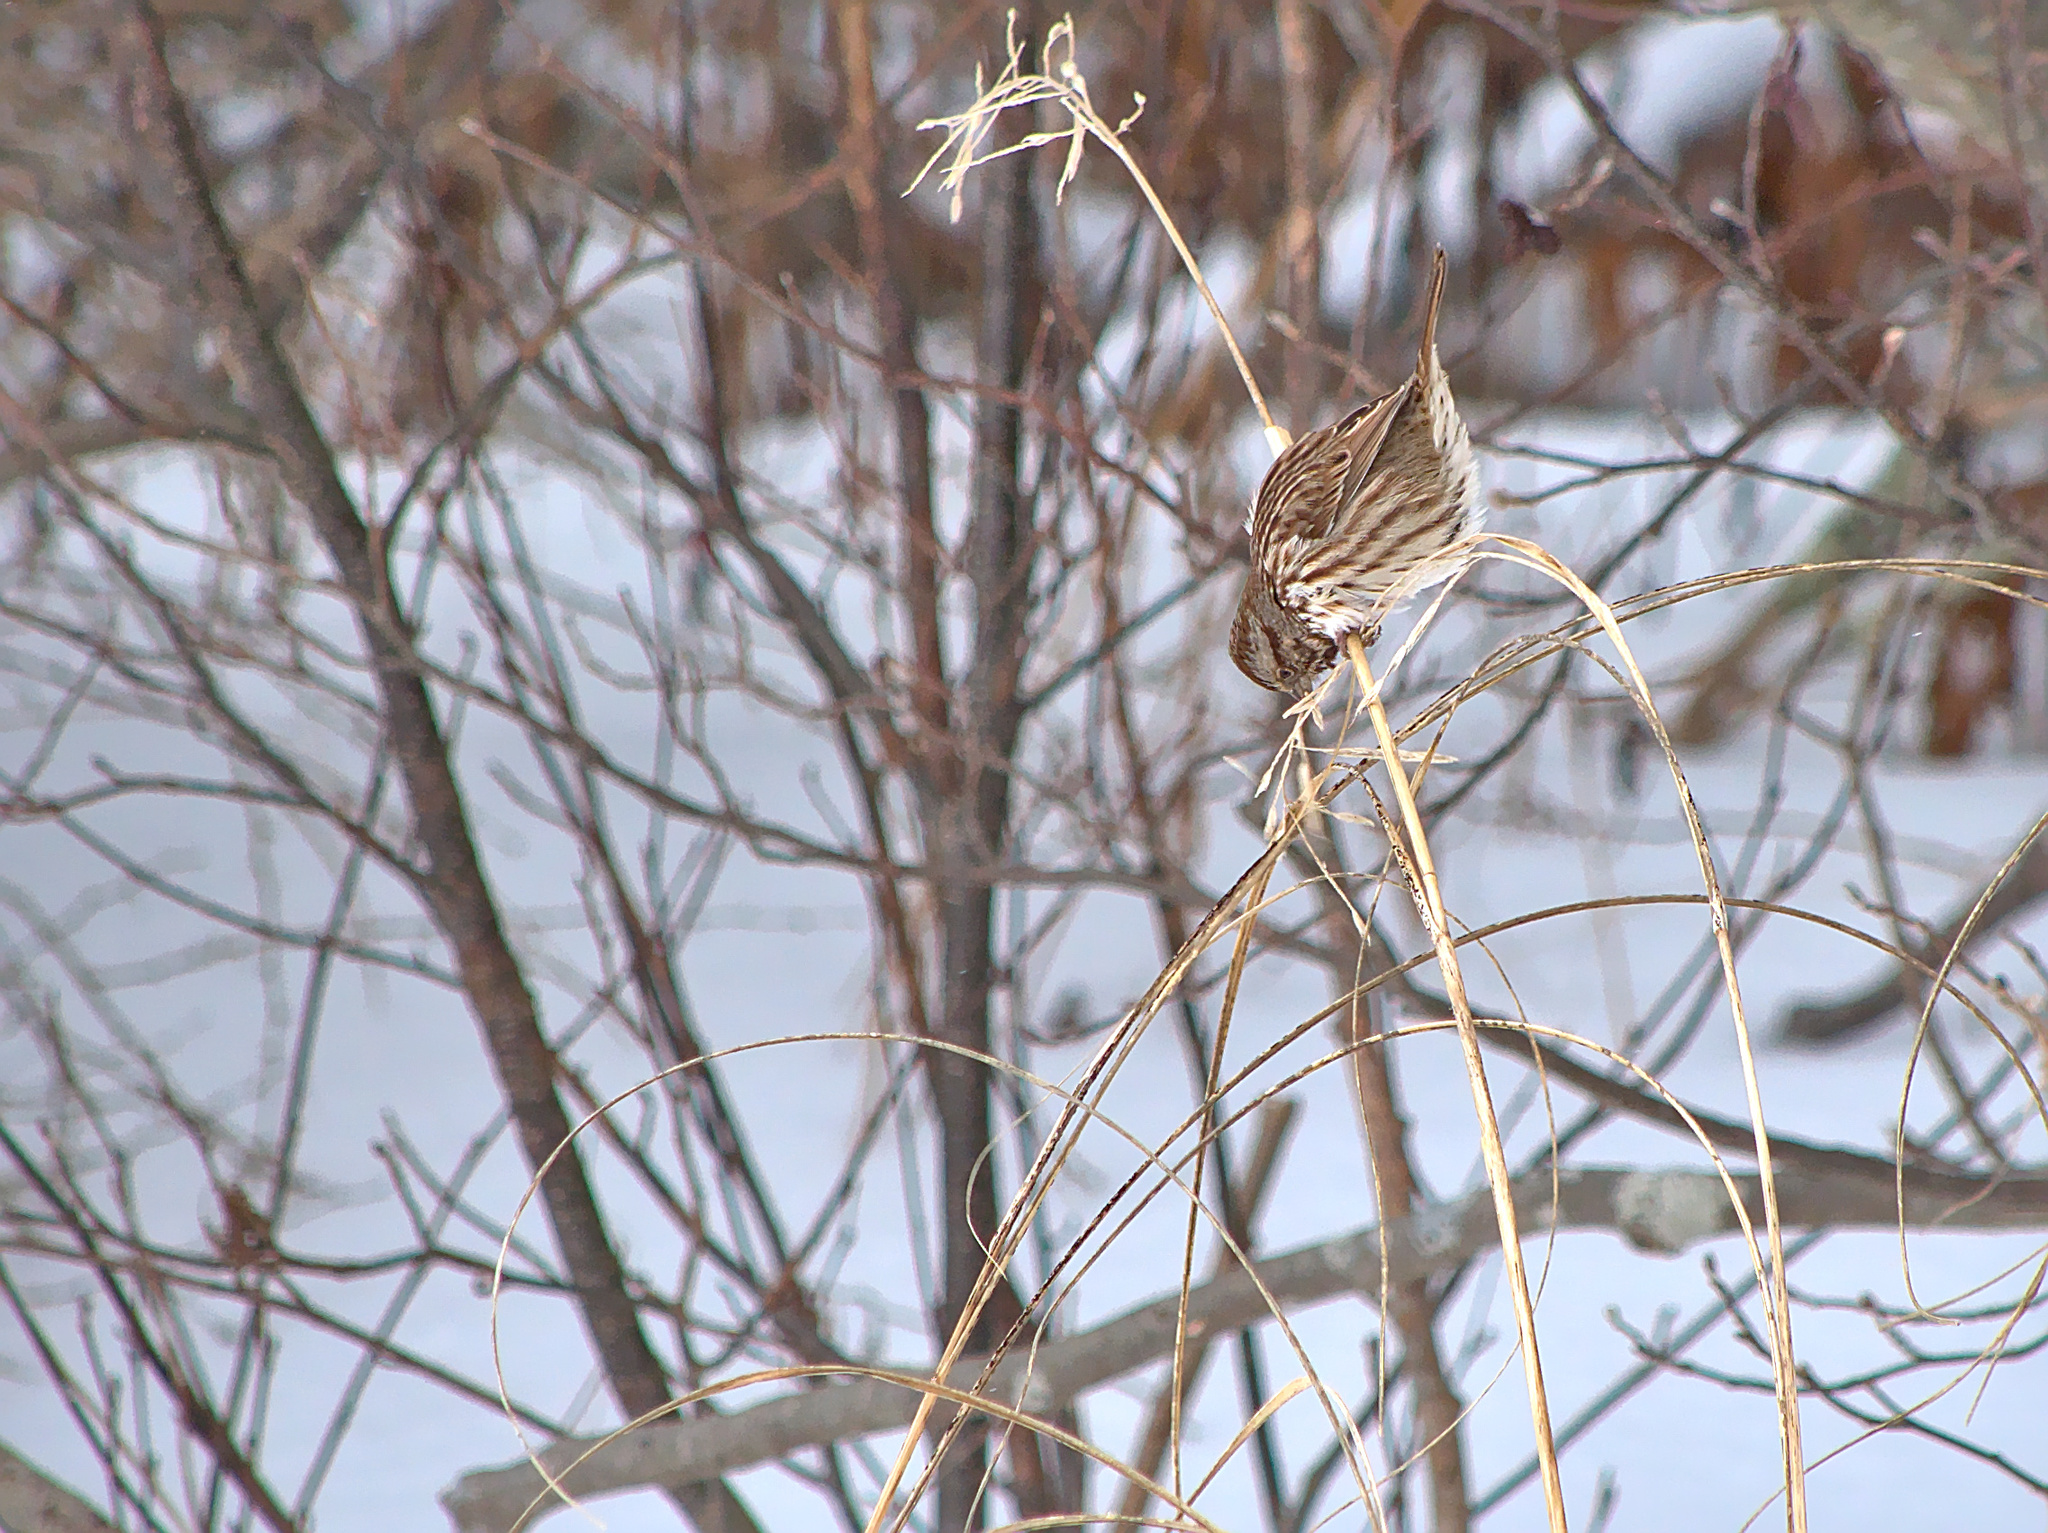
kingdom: Animalia
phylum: Chordata
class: Aves
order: Passeriformes
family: Passerellidae
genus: Melospiza
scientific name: Melospiza melodia
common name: Song sparrow
